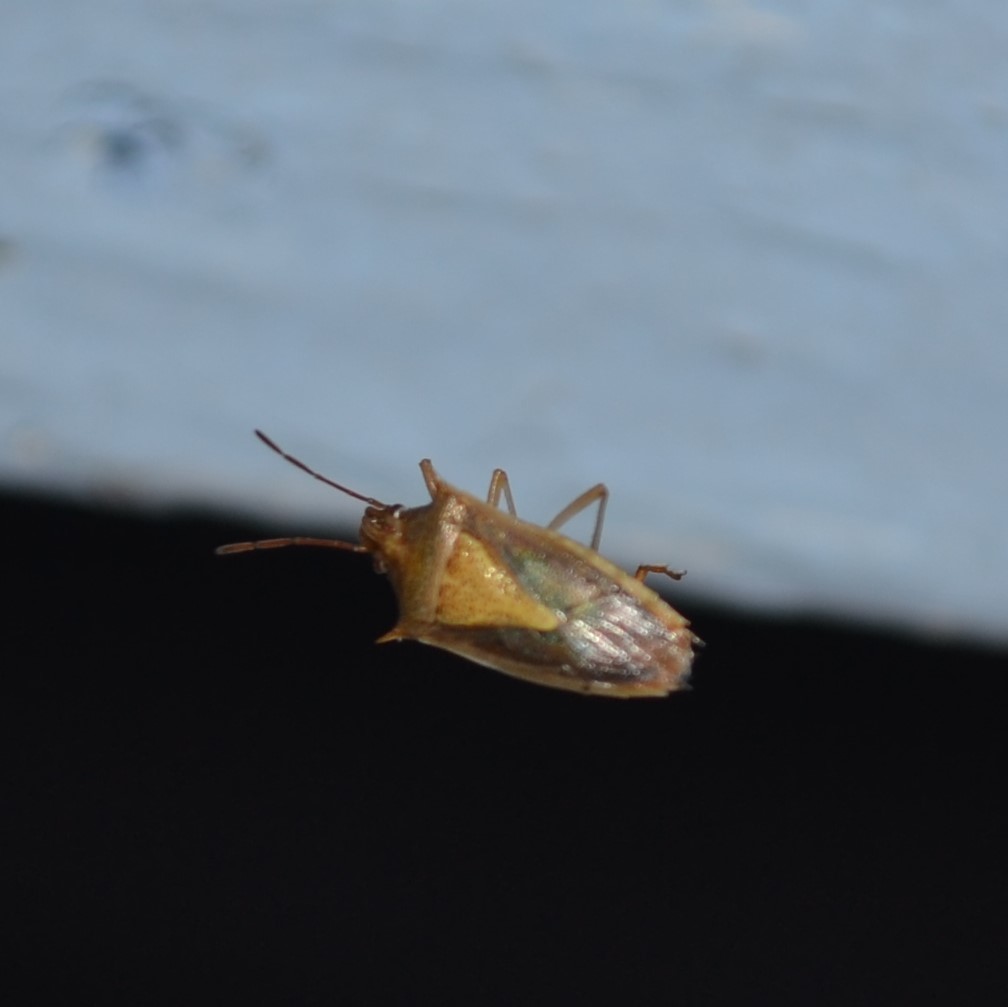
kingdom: Animalia
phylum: Arthropoda
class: Insecta
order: Hemiptera
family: Pentatomidae
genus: Oebalus
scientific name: Oebalus pugnax
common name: Rice stink bug
